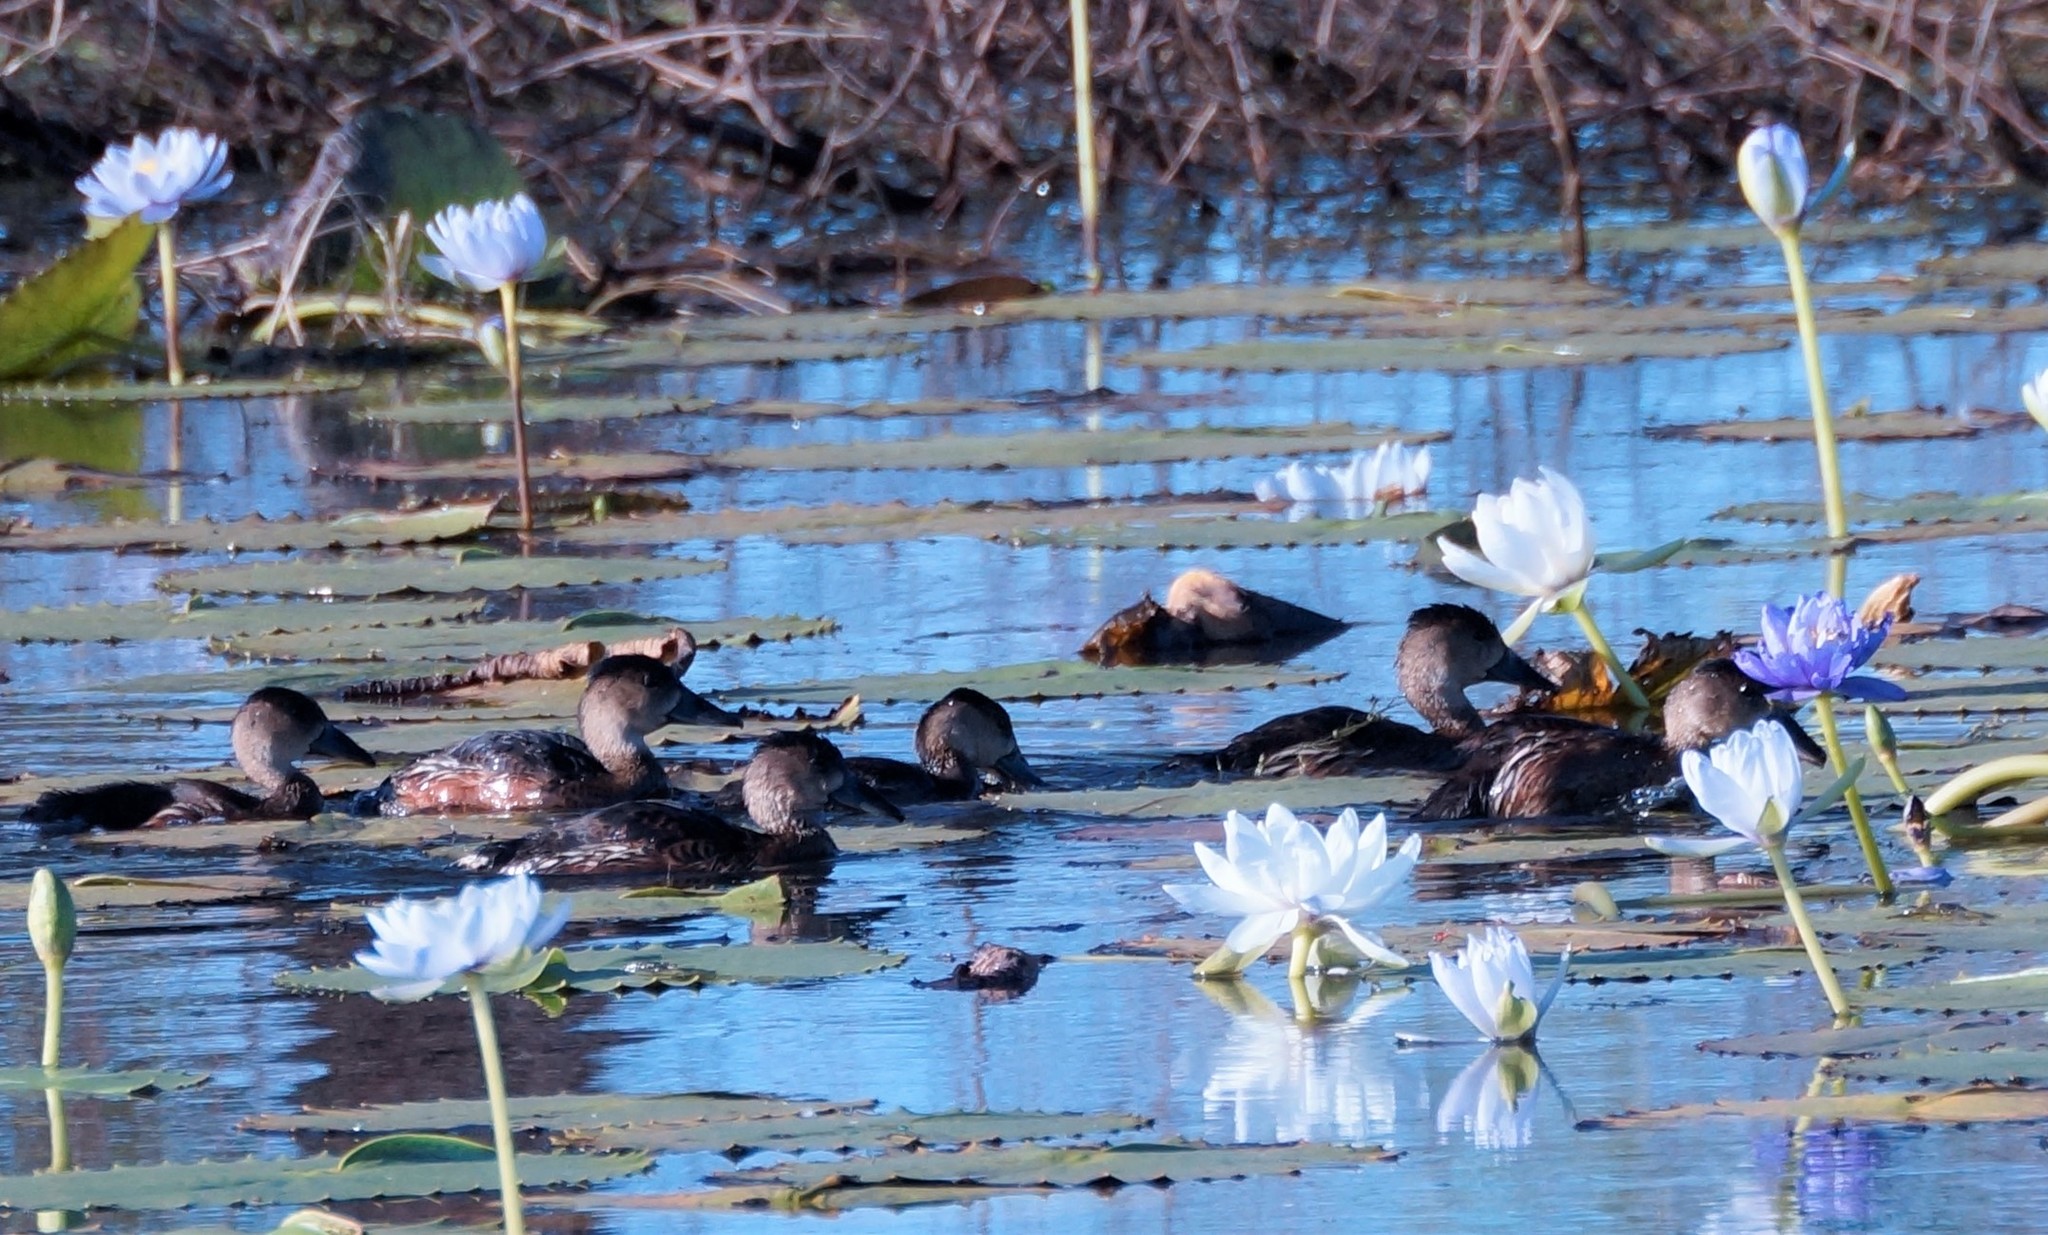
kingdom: Animalia
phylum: Chordata
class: Aves
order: Anseriformes
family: Anatidae
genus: Dendrocygna
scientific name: Dendrocygna arcuata
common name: Wandering whistling-duck
